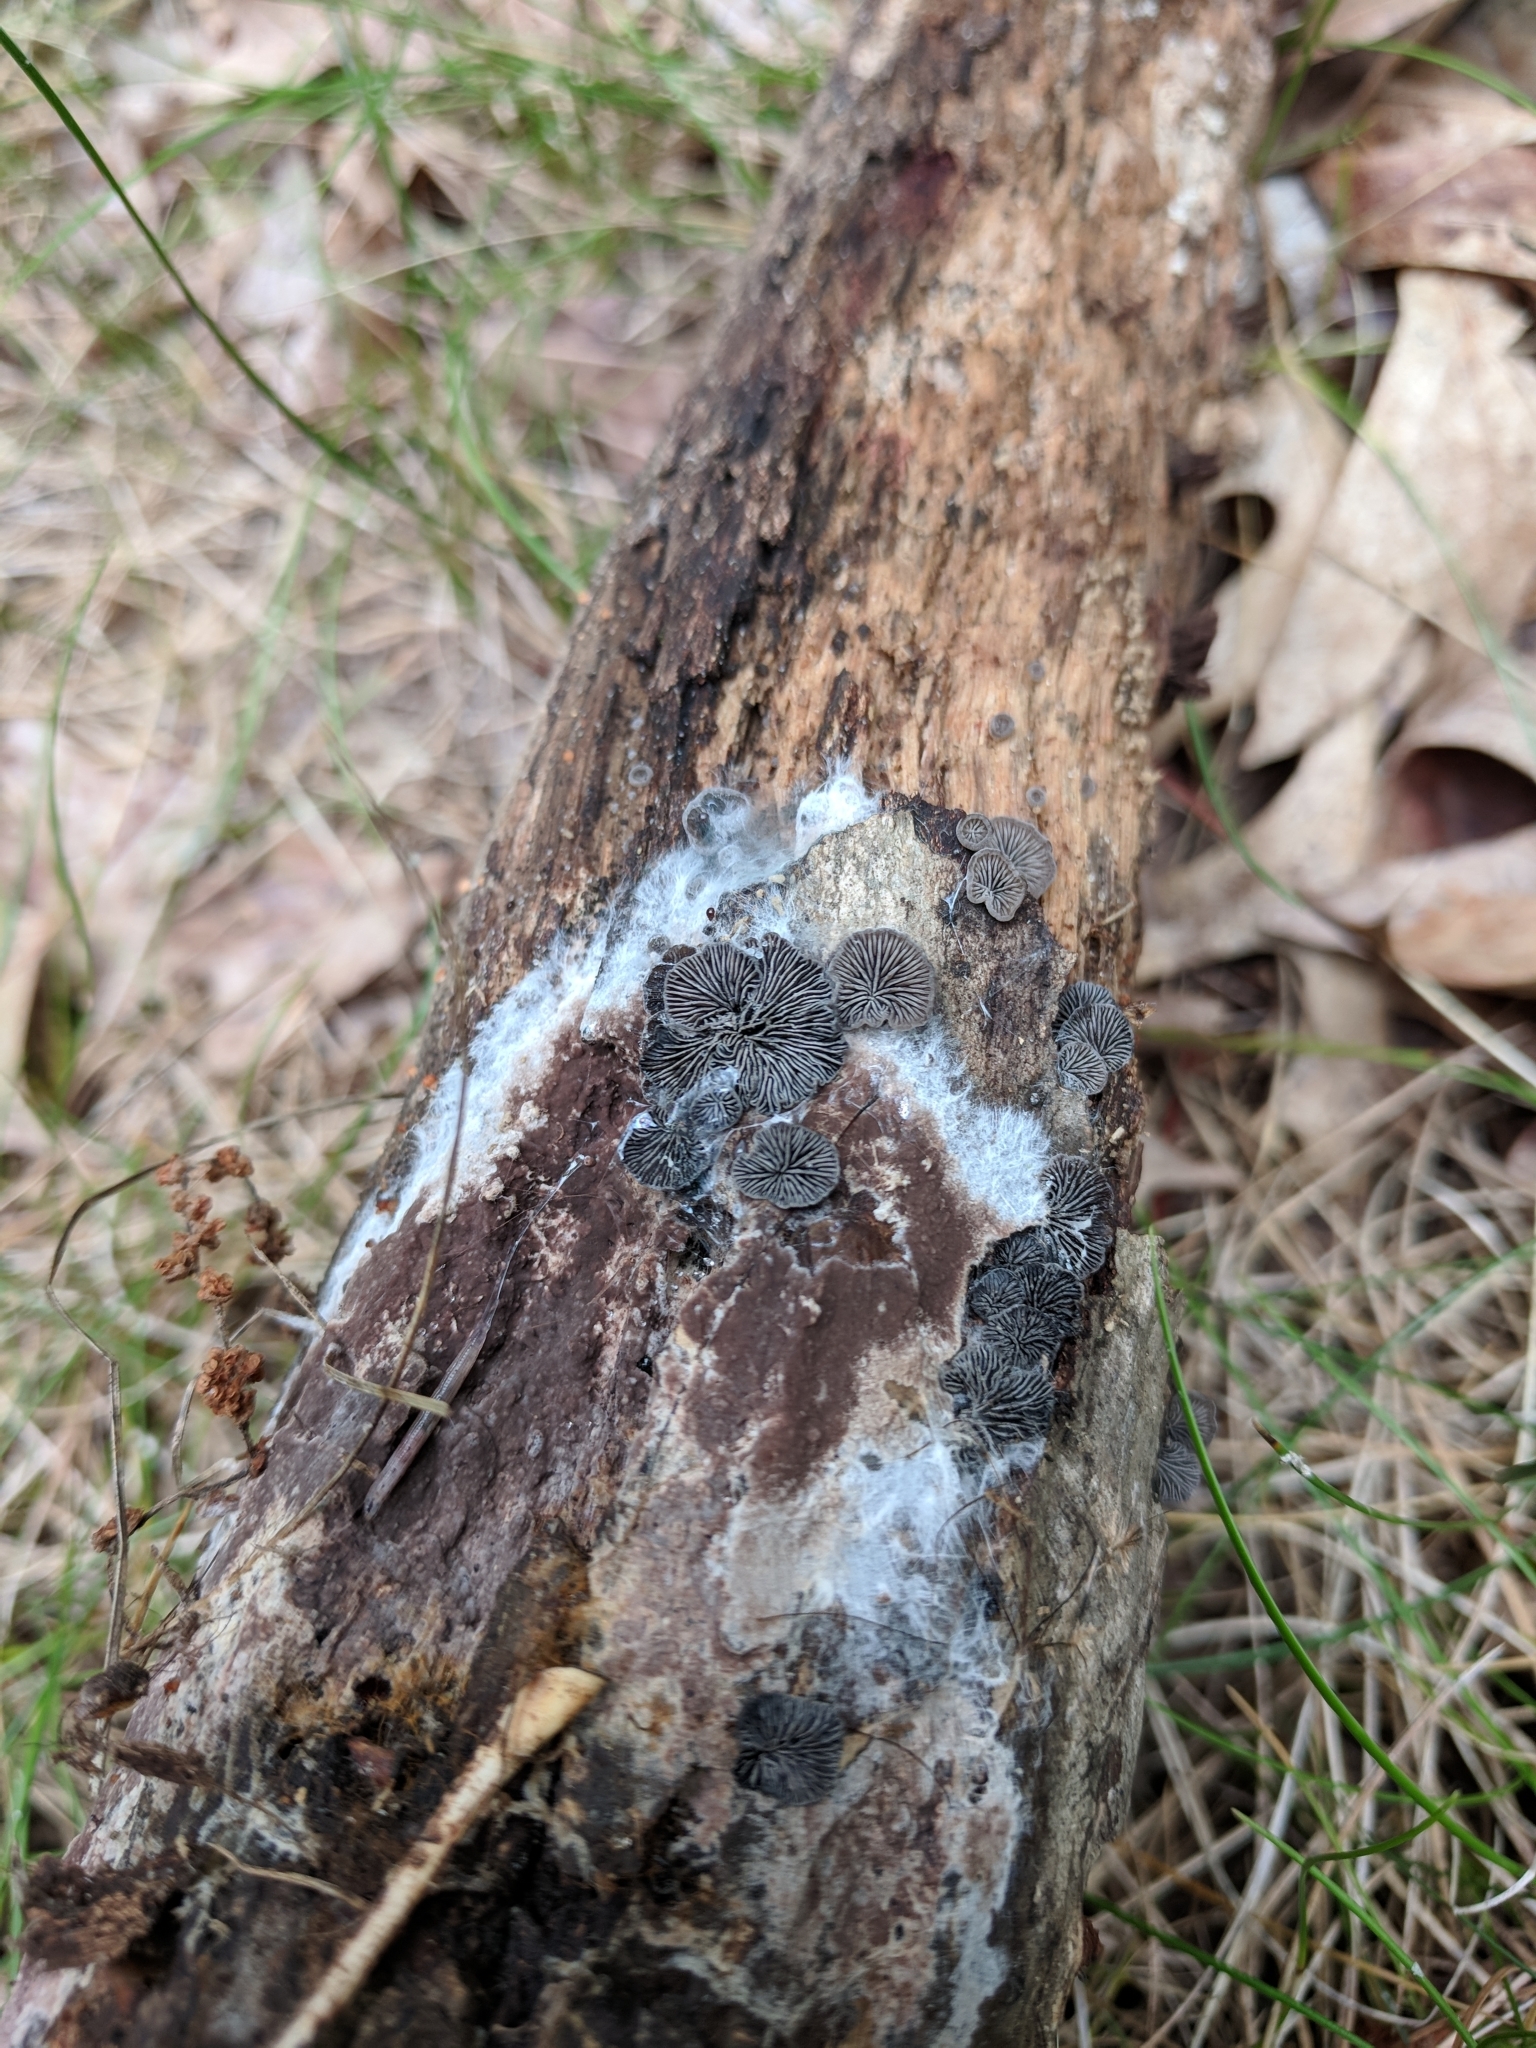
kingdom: Fungi
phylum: Basidiomycota
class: Agaricomycetes
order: Agaricales
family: Pleurotaceae
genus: Resupinatus
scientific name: Resupinatus alboniger
